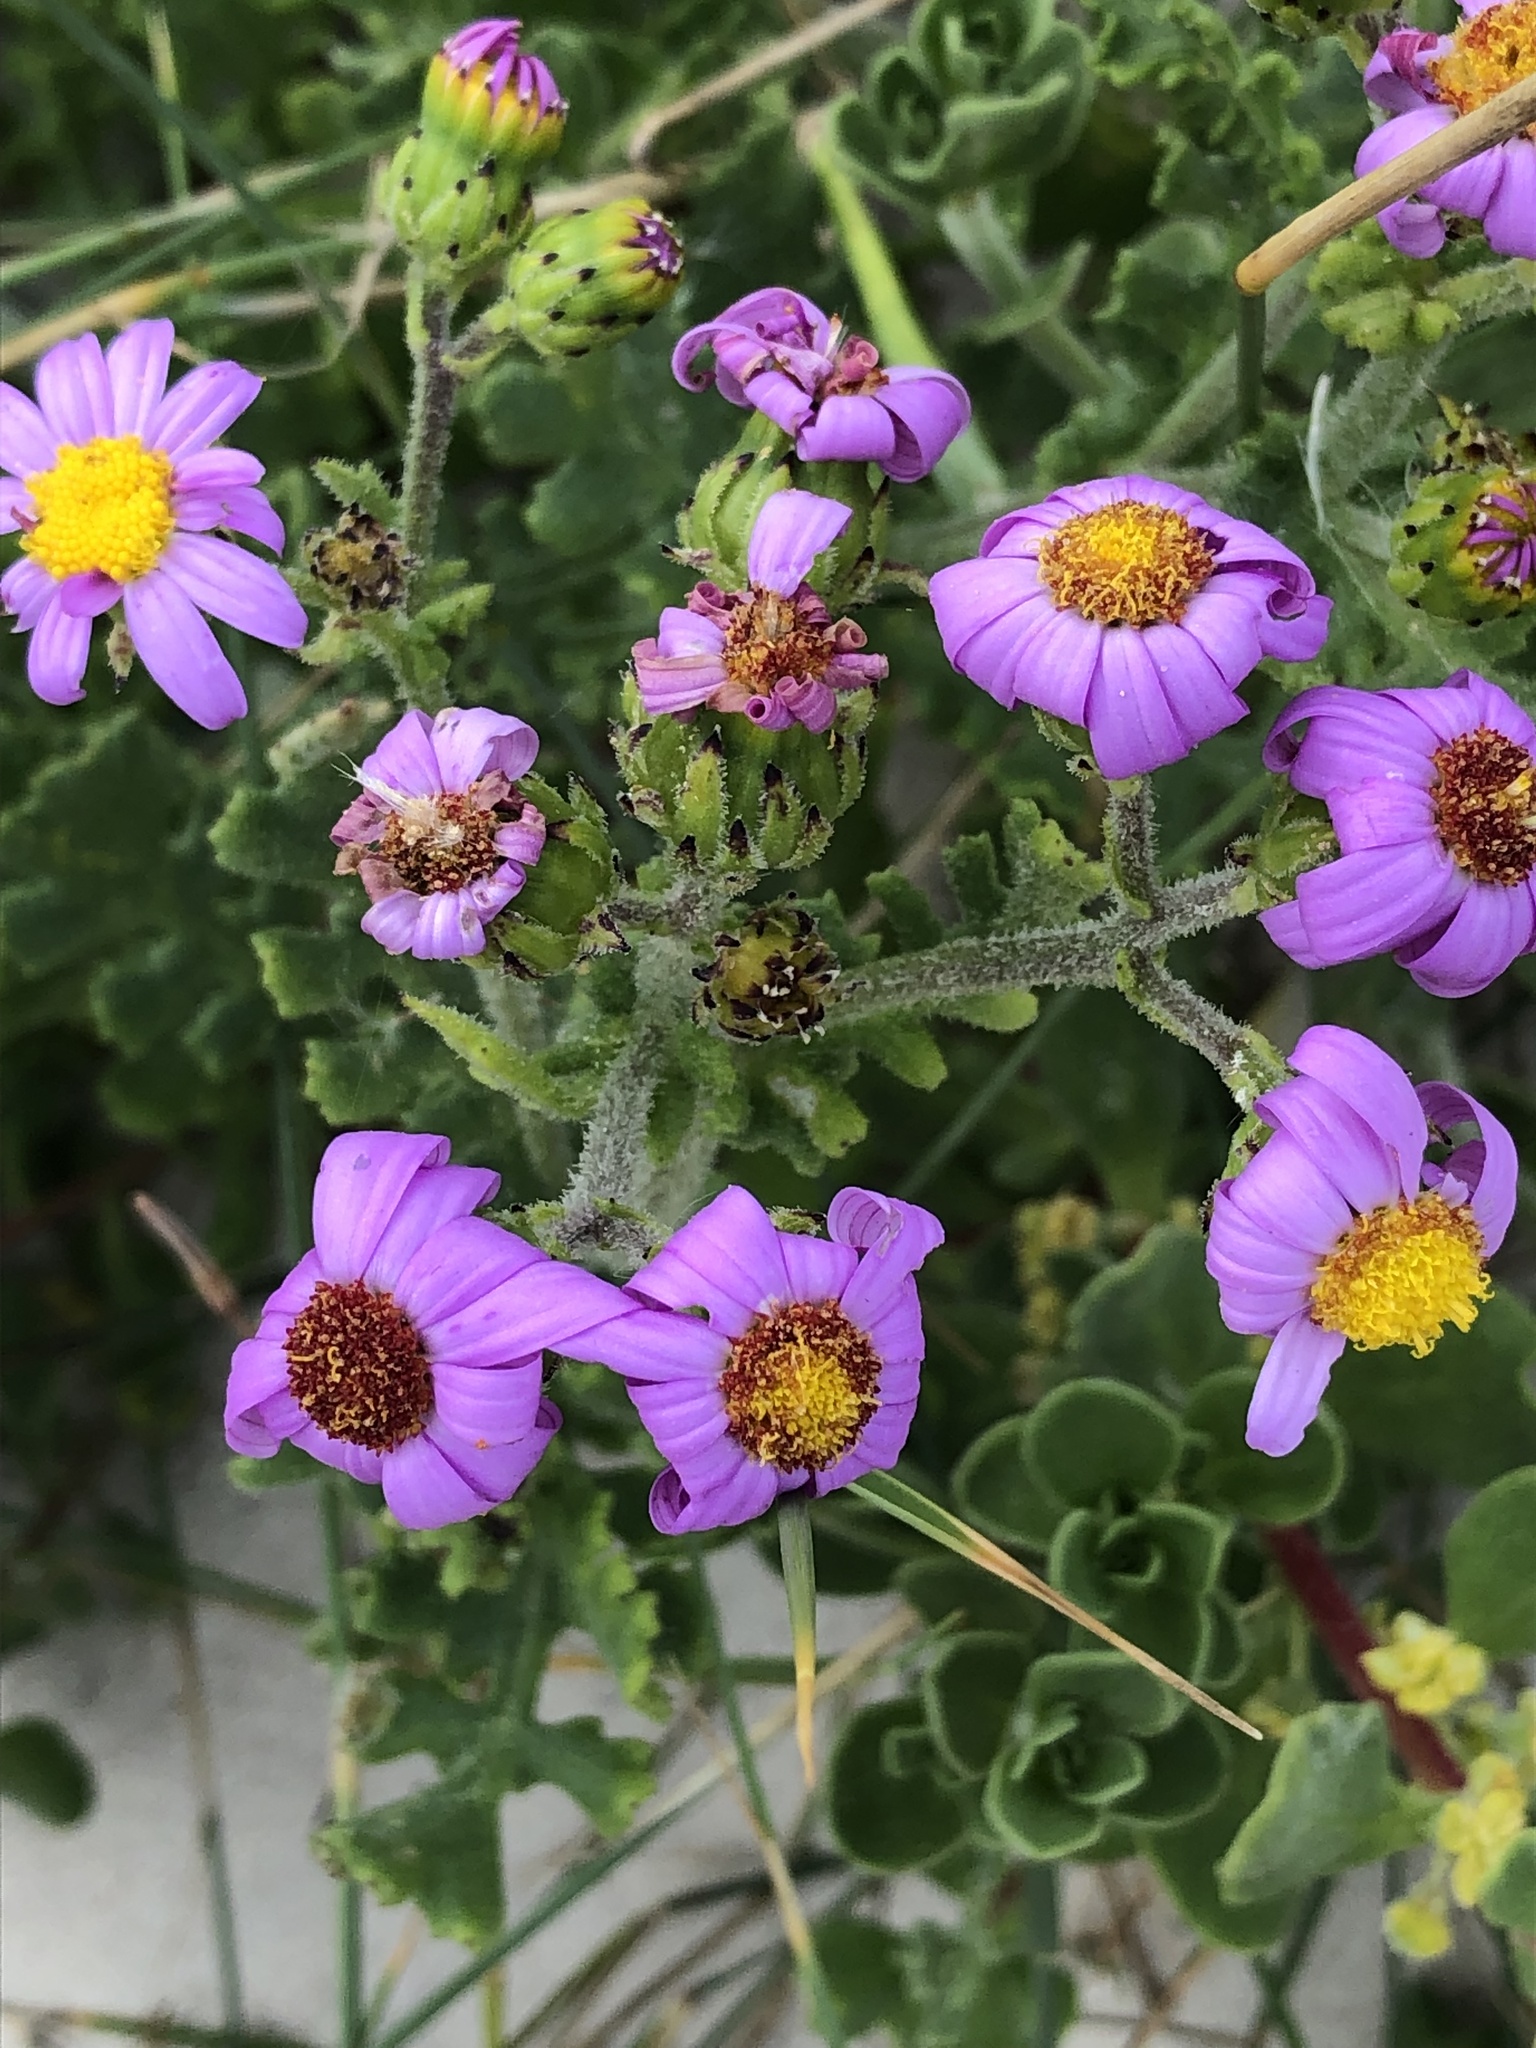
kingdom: Plantae
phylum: Tracheophyta
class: Magnoliopsida
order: Asterales
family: Asteraceae
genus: Senecio
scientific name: Senecio elegans
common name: Purple groundsel
